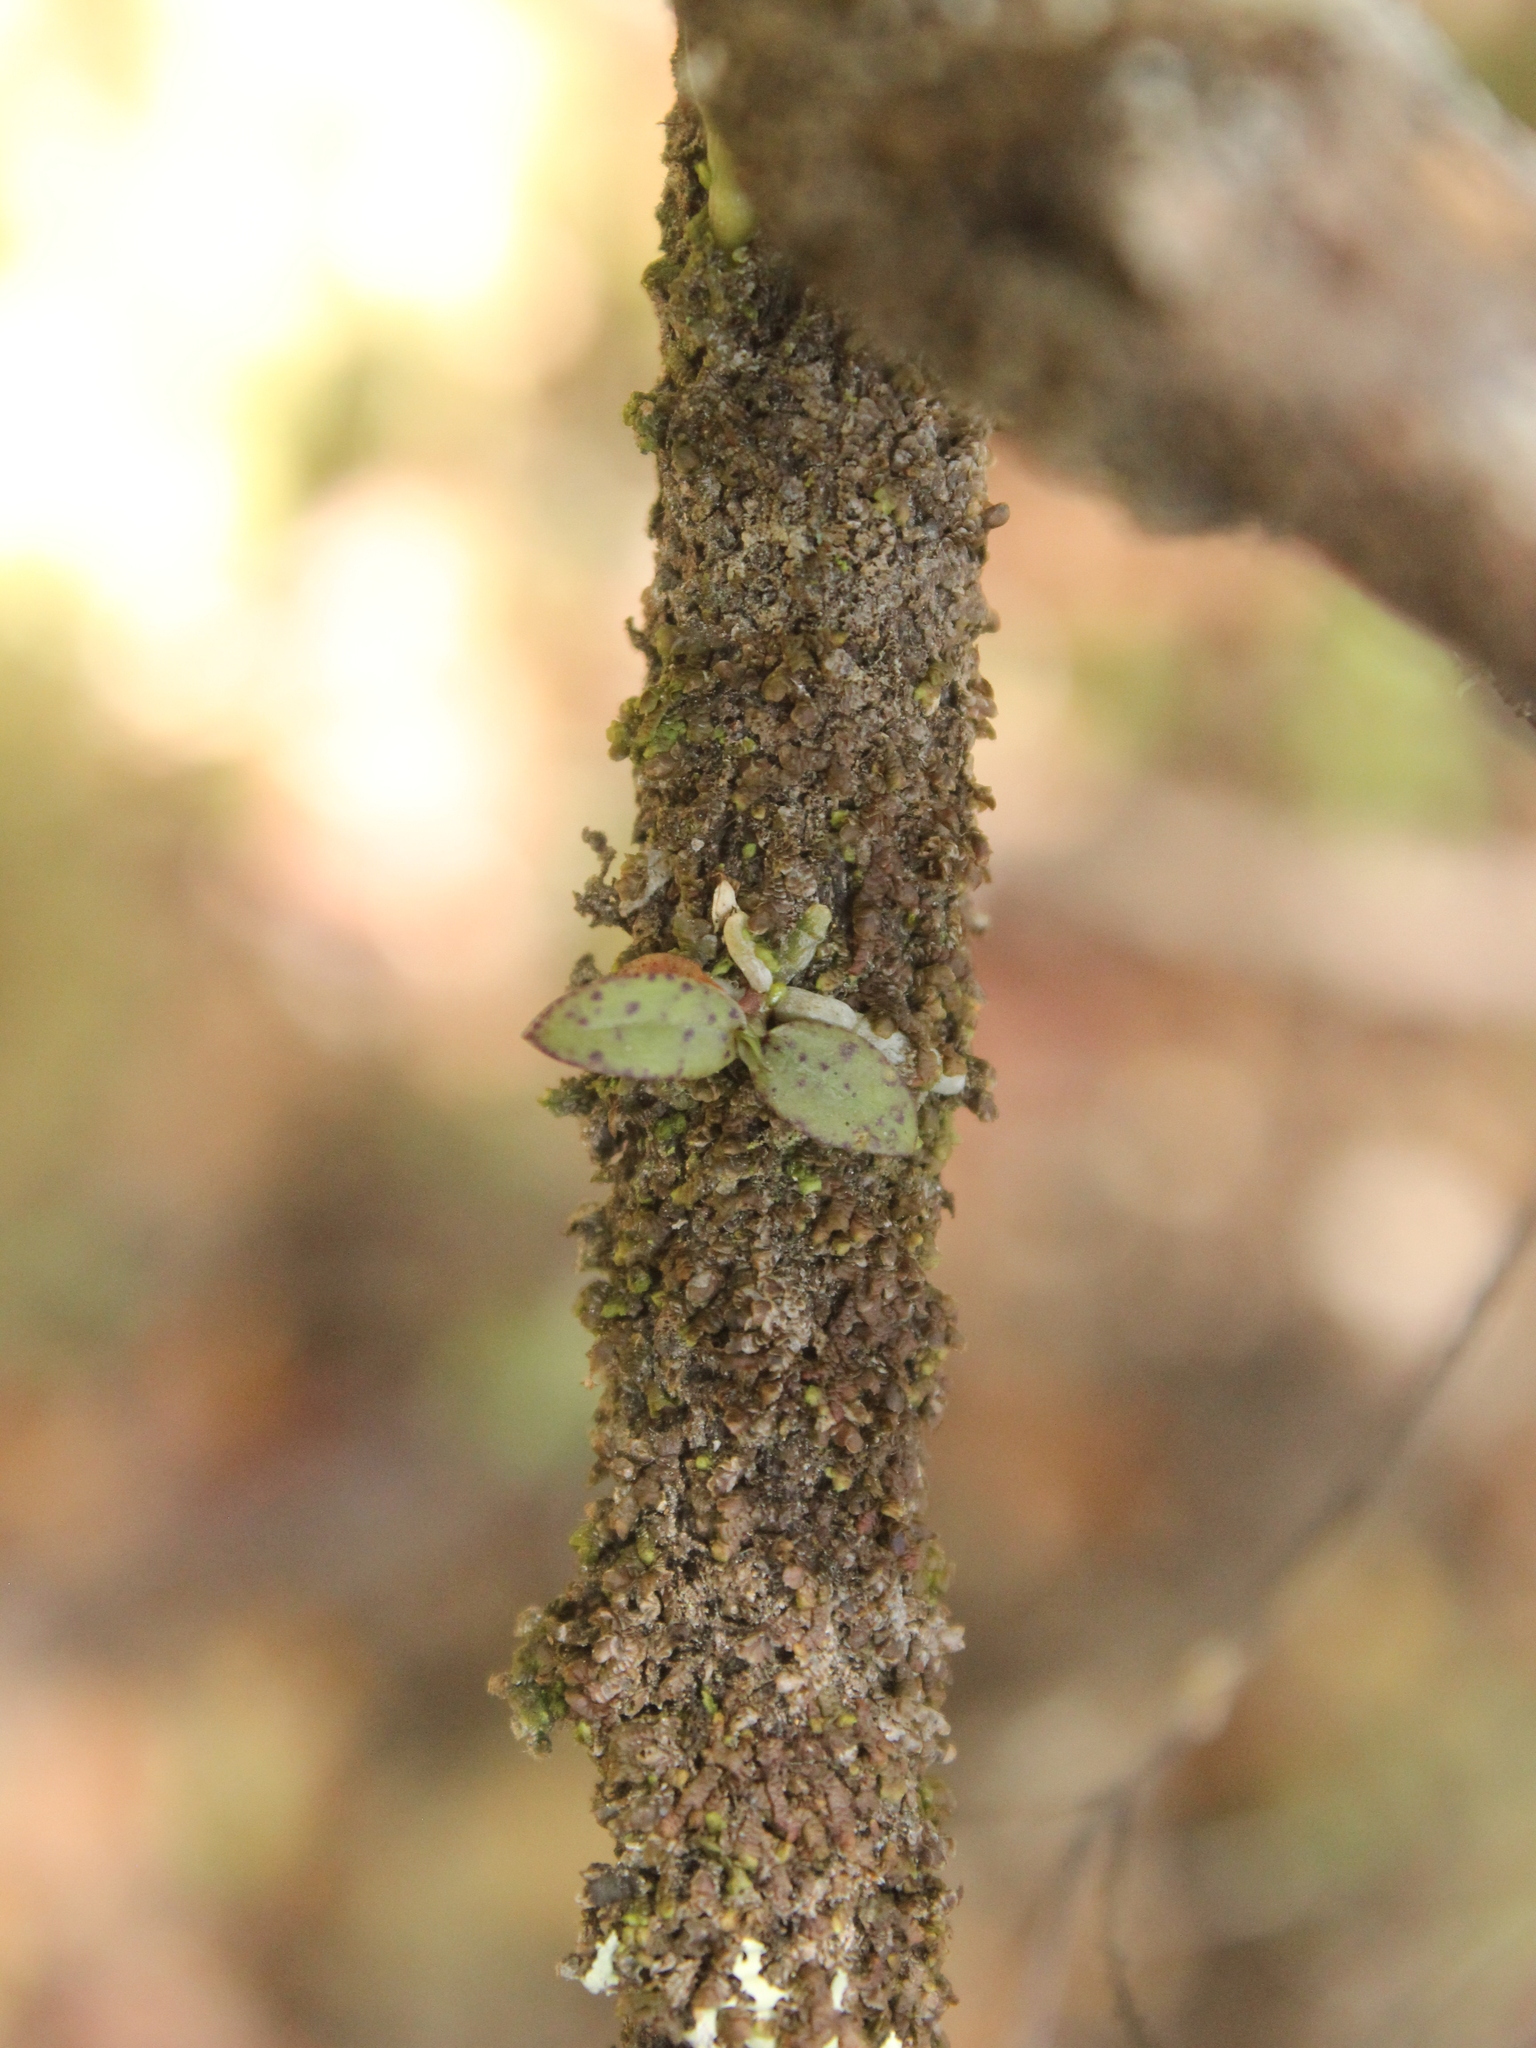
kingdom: Plantae
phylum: Tracheophyta
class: Liliopsida
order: Asparagales
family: Orchidaceae
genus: Drymoanthus
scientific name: Drymoanthus flavus
